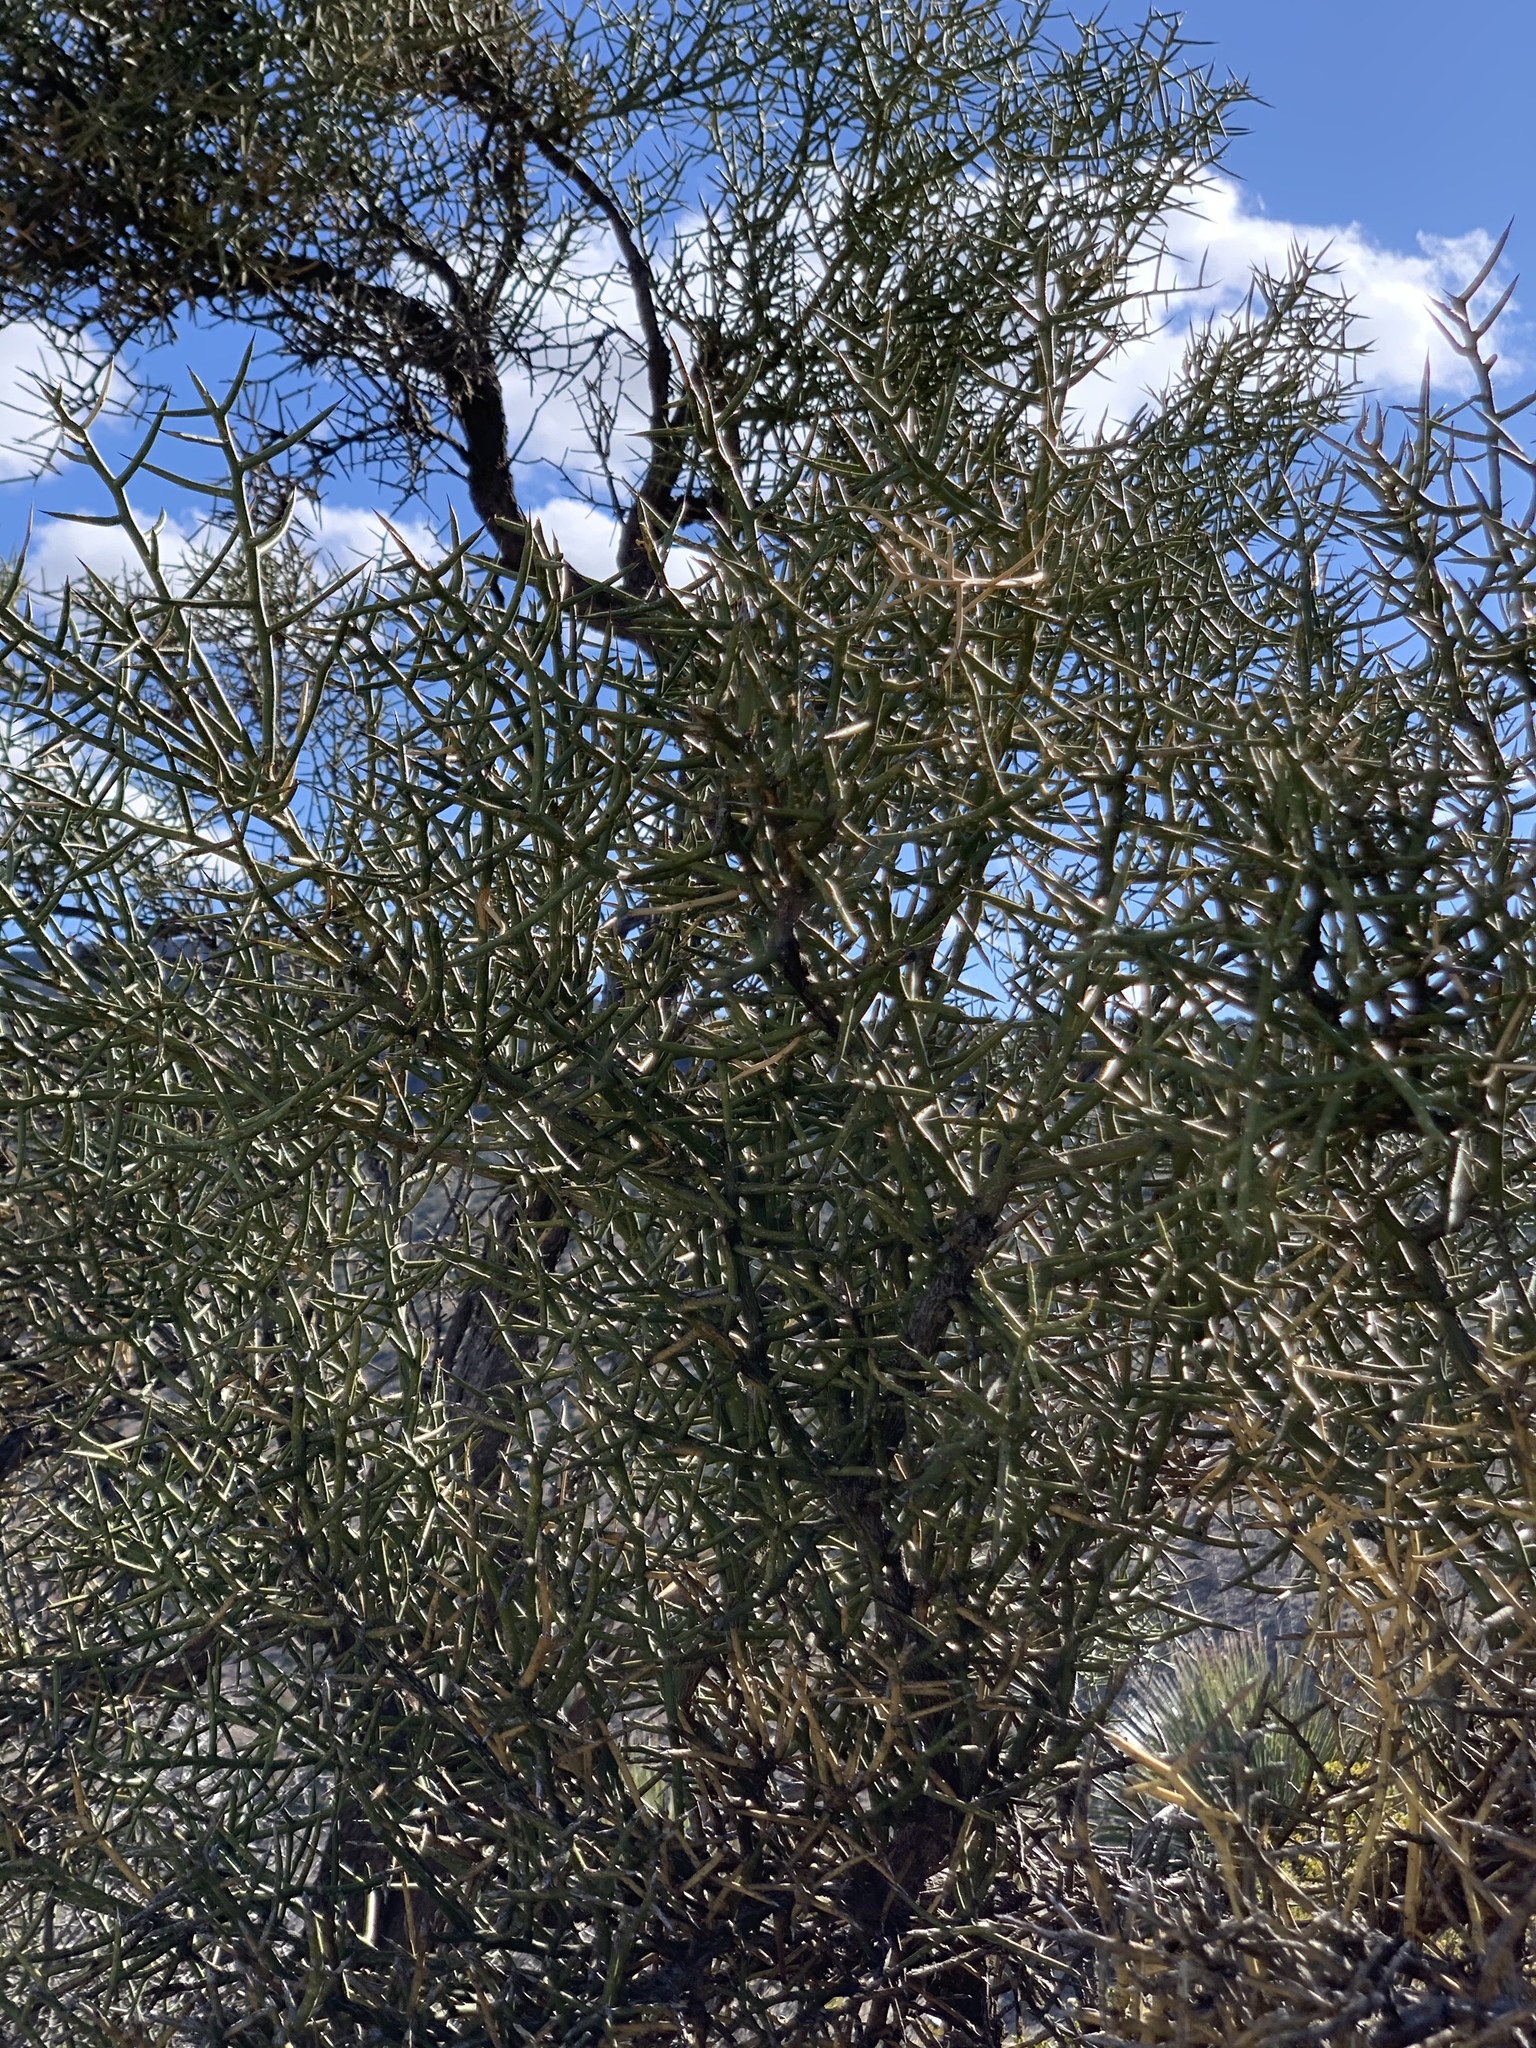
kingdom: Plantae
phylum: Tracheophyta
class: Magnoliopsida
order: Brassicales
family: Koeberliniaceae
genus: Koeberlinia
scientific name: Koeberlinia spinosa
